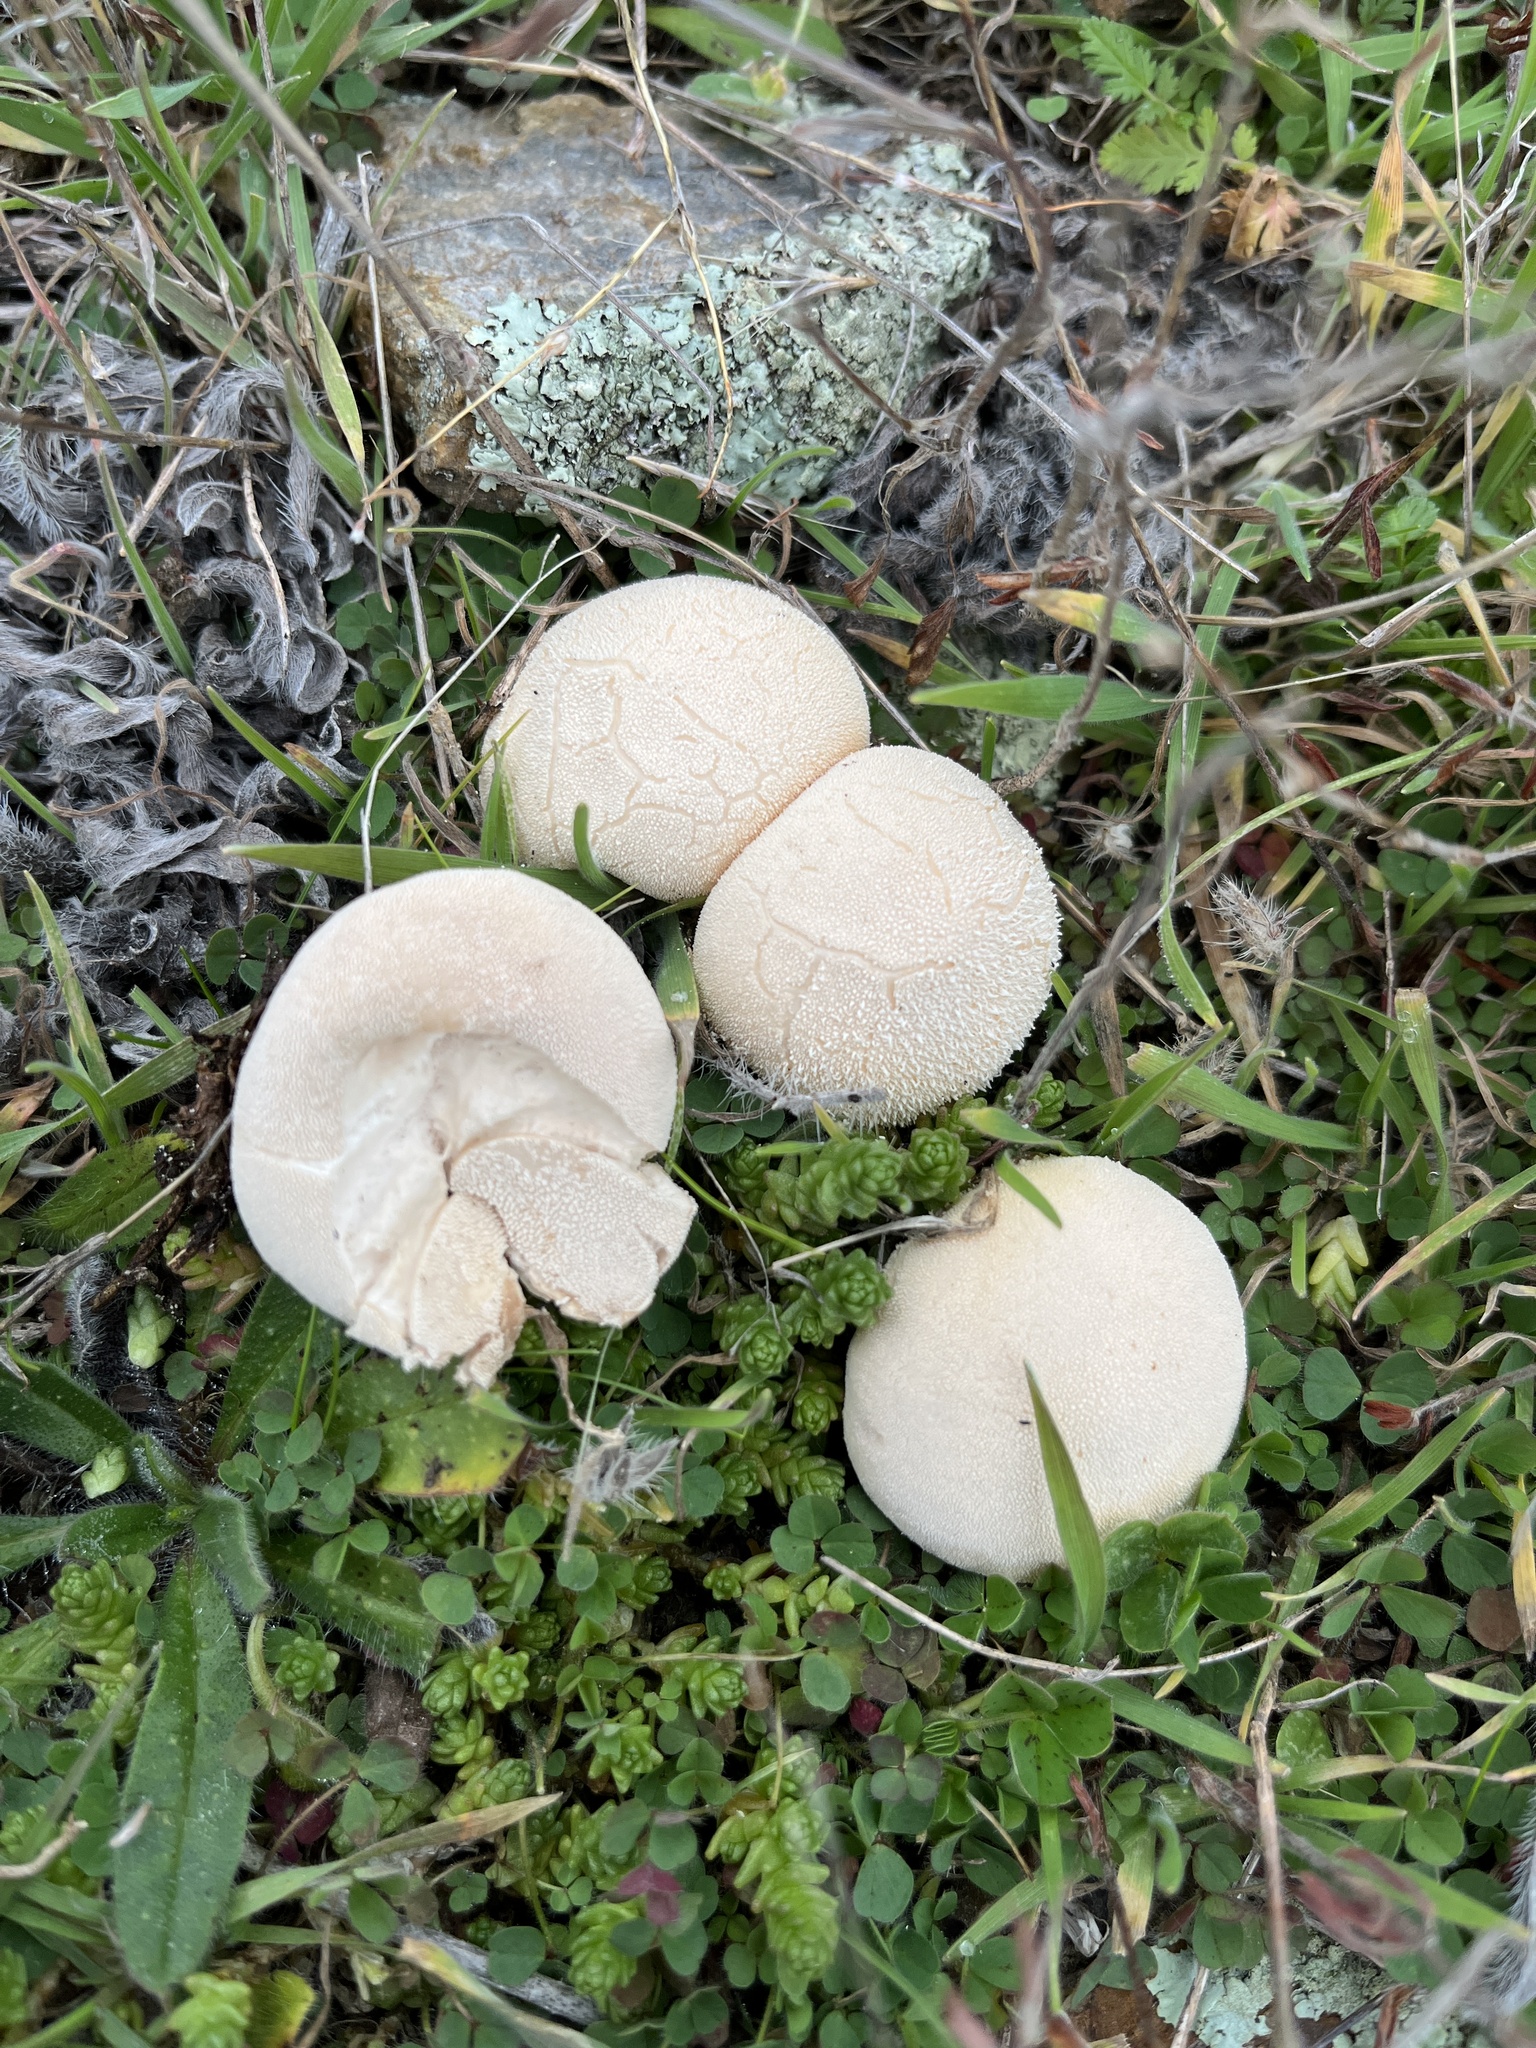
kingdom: Fungi
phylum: Basidiomycota
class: Agaricomycetes
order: Agaricales
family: Lycoperdaceae
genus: Lycoperdon
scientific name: Lycoperdon pratense
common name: Meadow puffball
